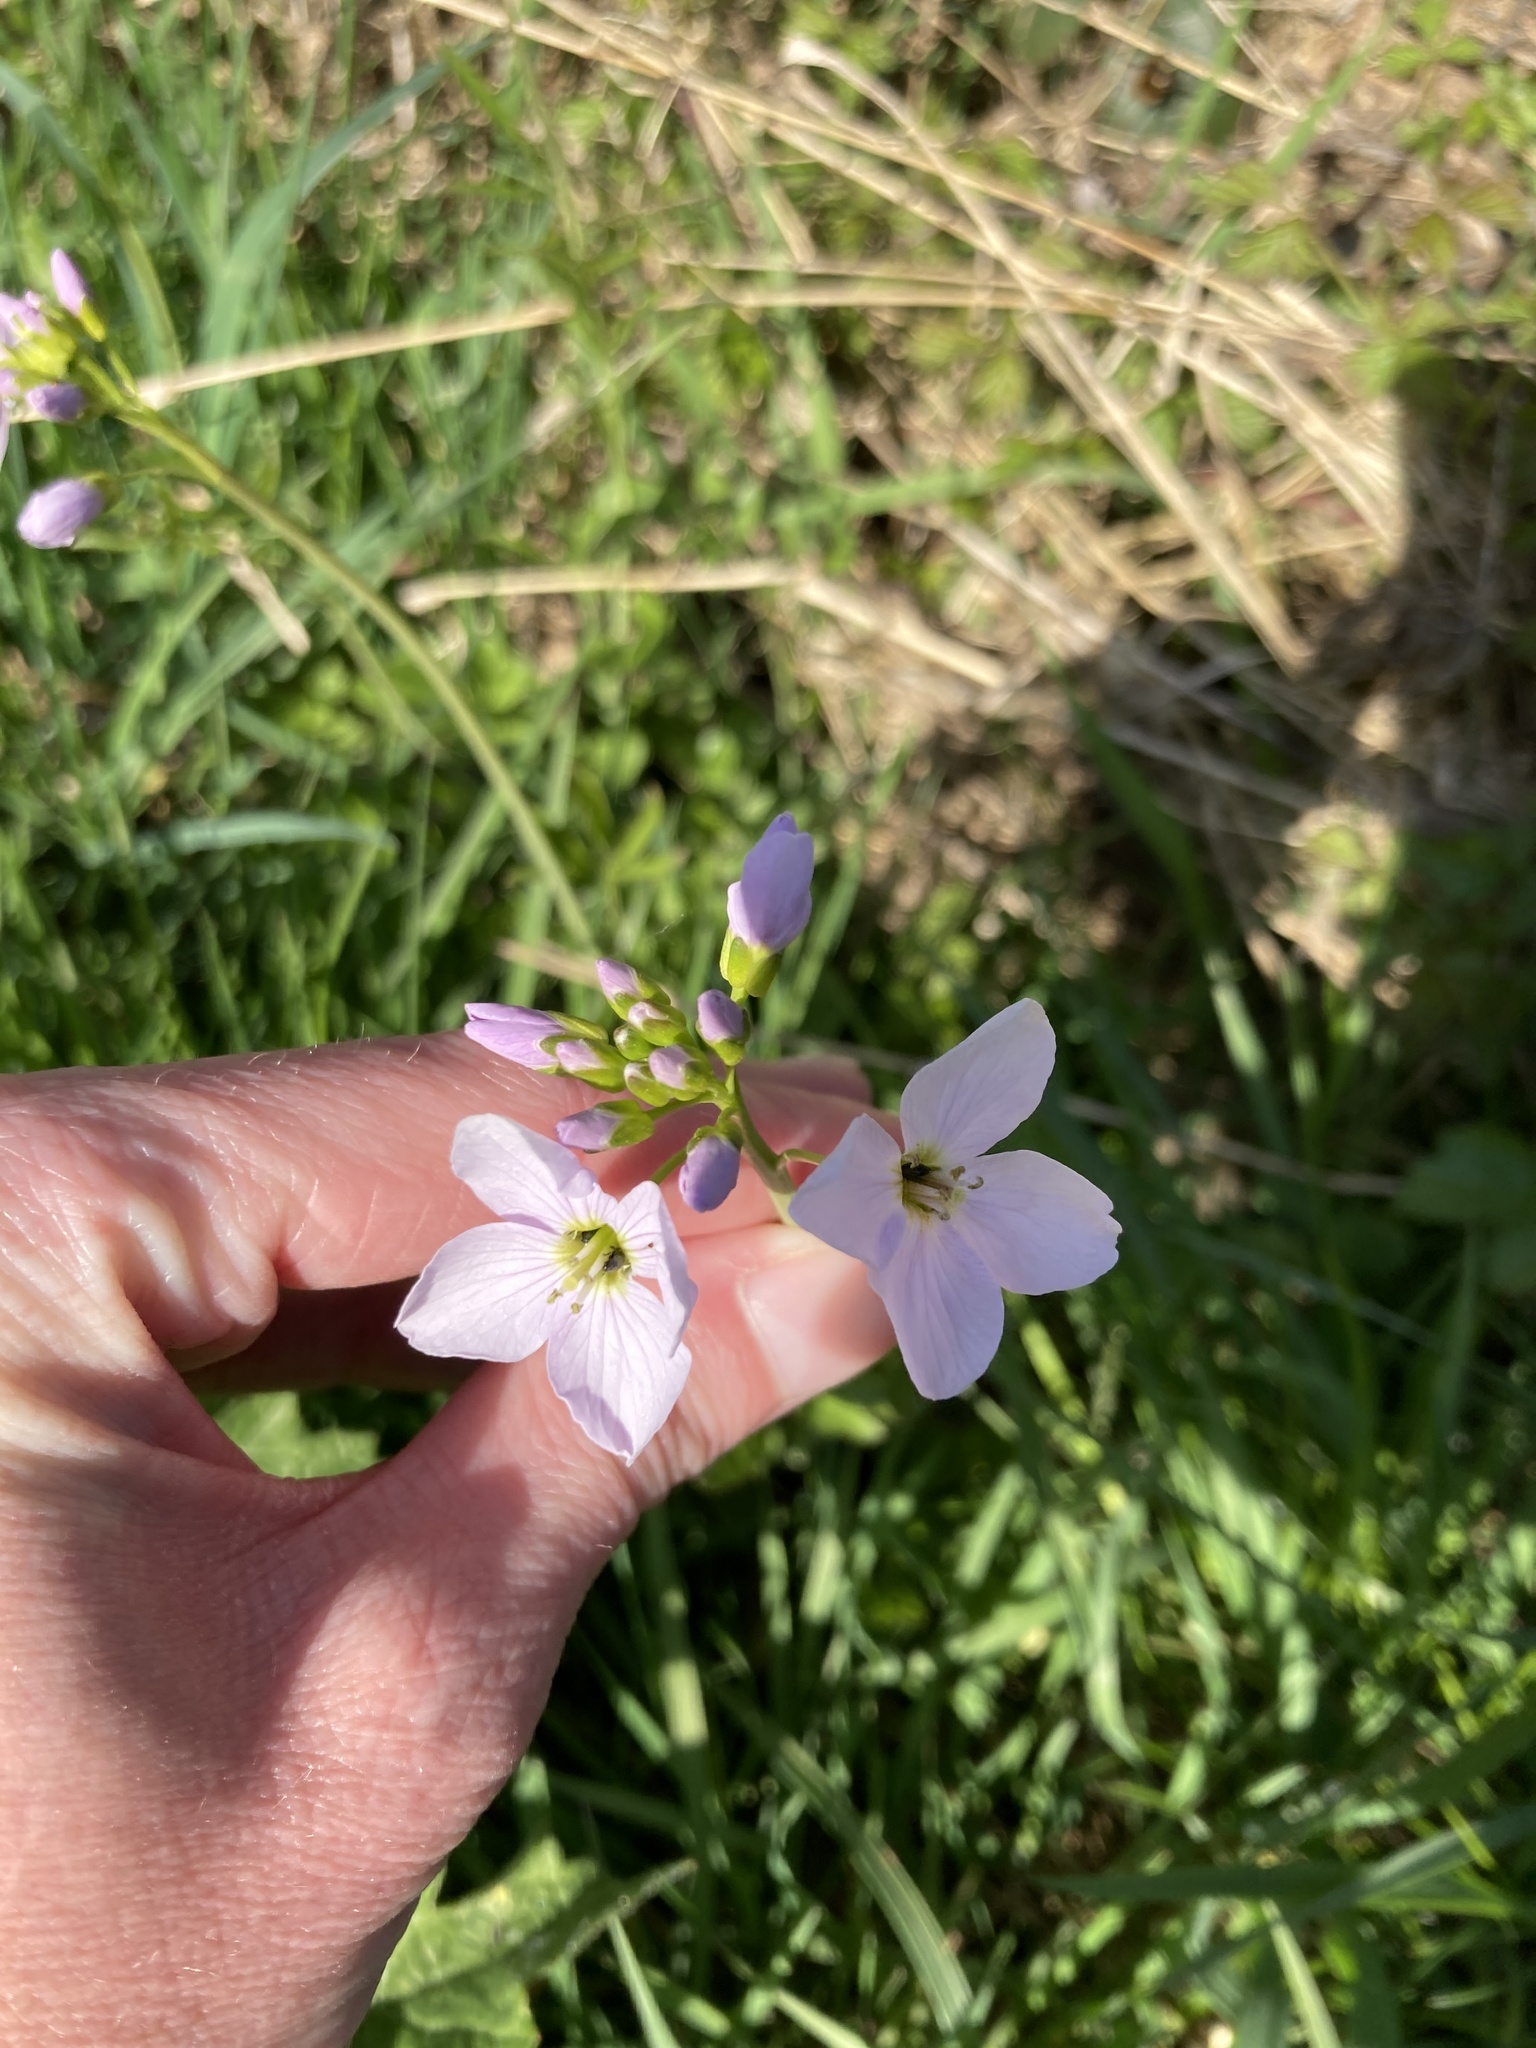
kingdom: Plantae
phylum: Tracheophyta
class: Magnoliopsida
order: Brassicales
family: Brassicaceae
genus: Cardamine
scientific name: Cardamine pratensis
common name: Cuckoo flower
